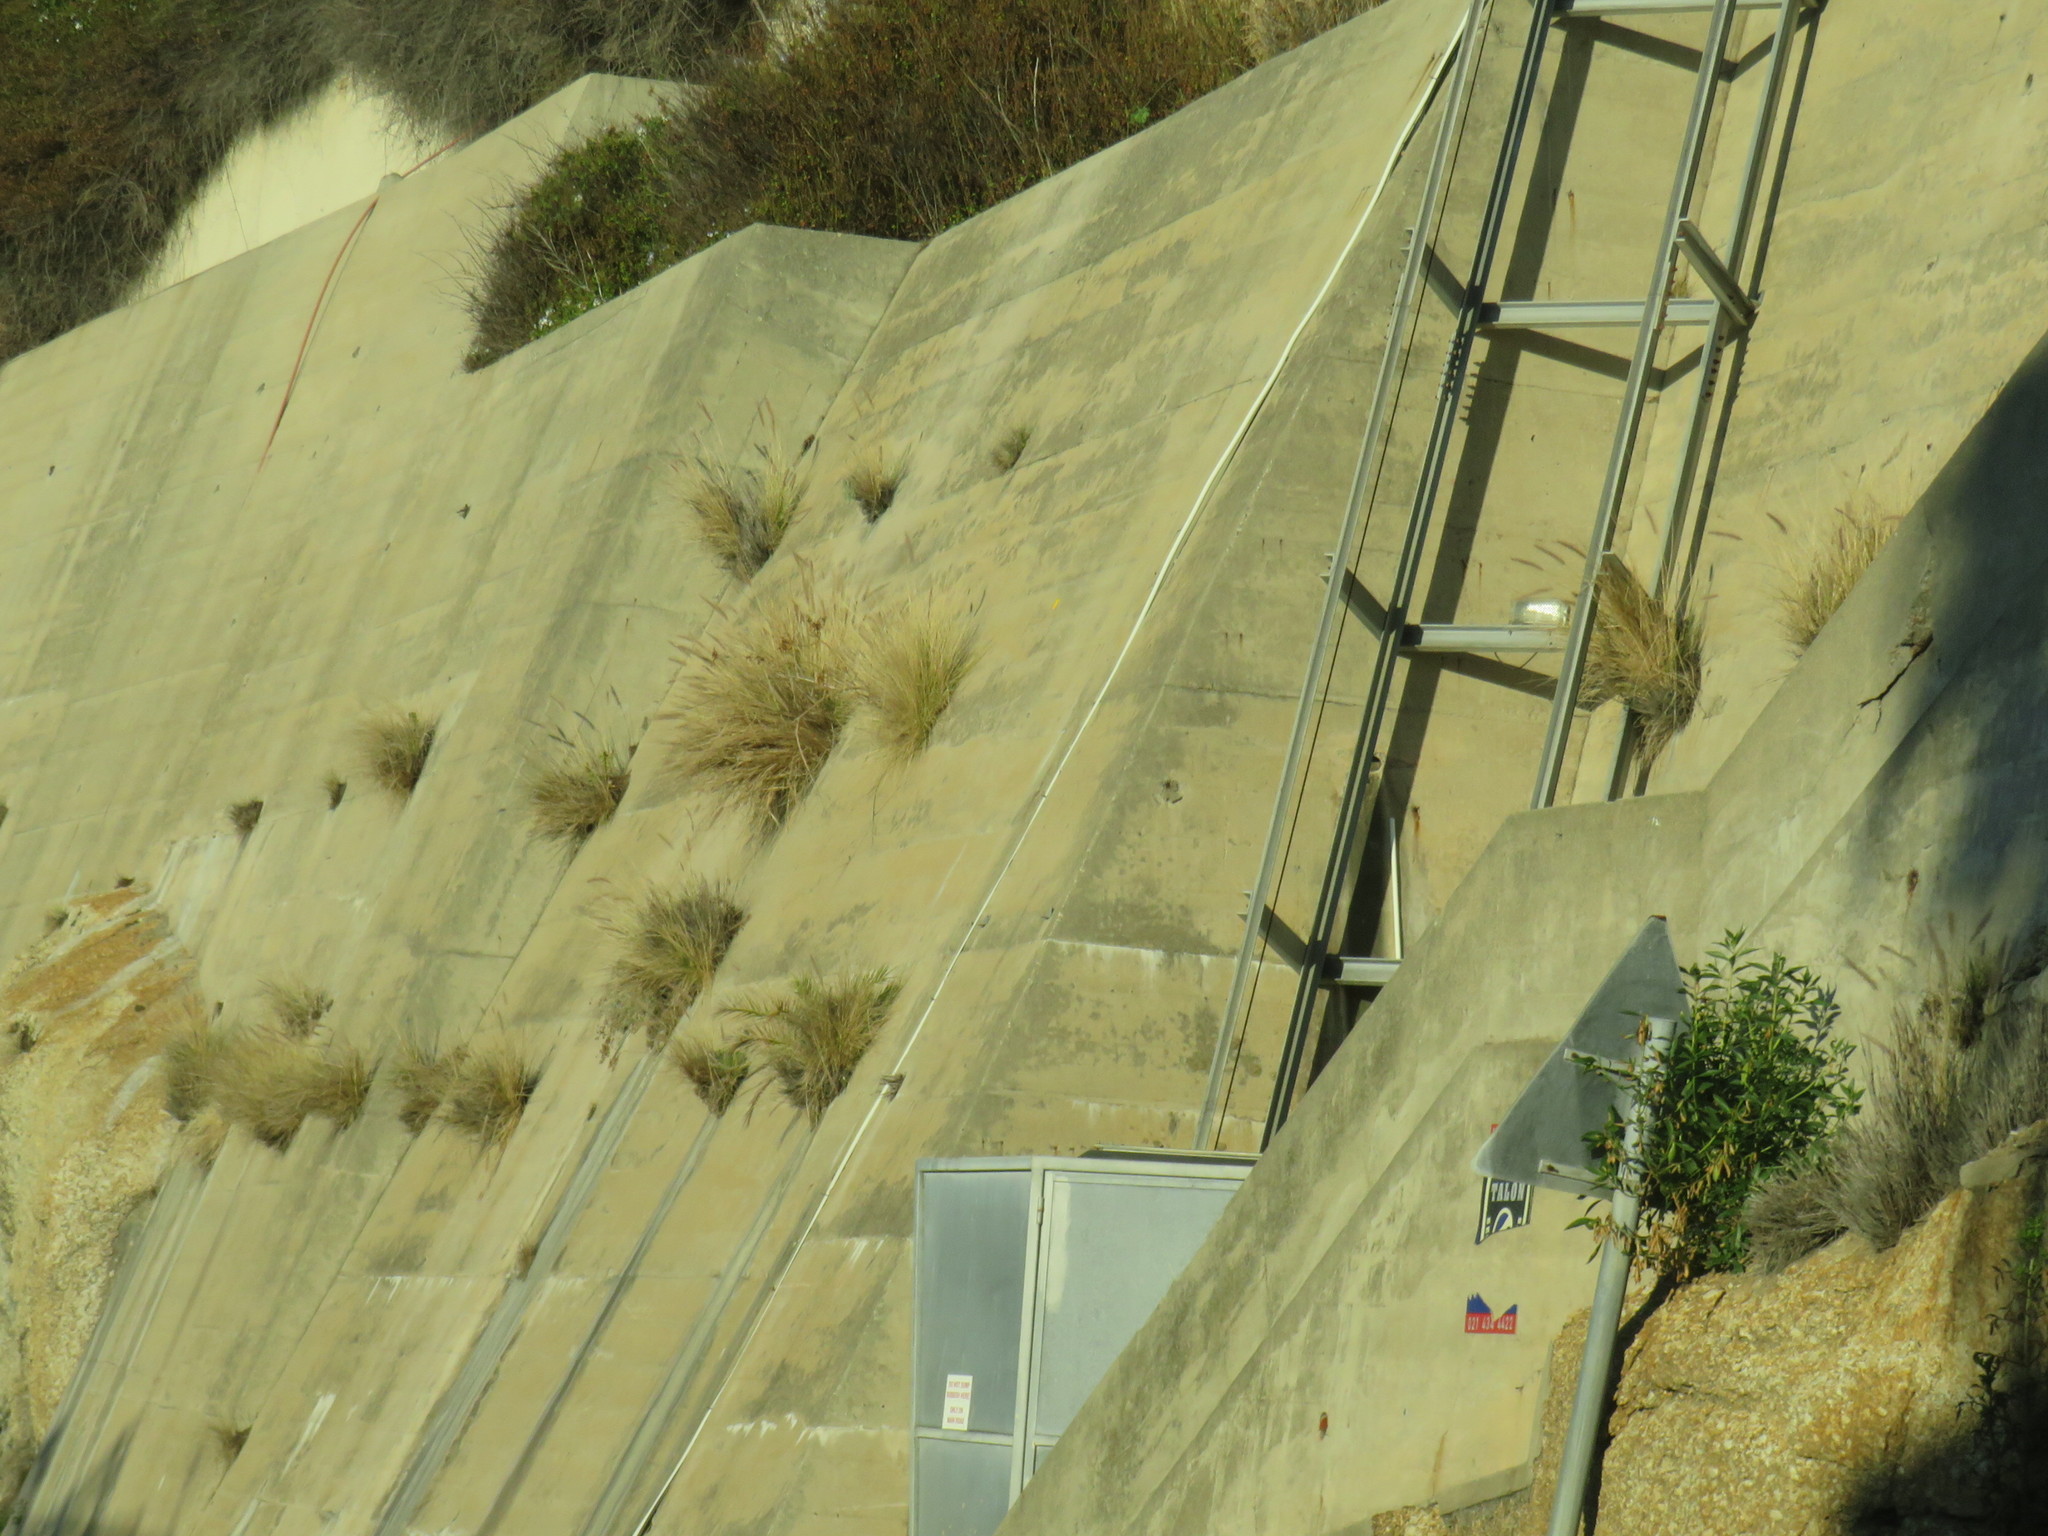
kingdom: Plantae
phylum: Tracheophyta
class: Liliopsida
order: Poales
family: Poaceae
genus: Cenchrus
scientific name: Cenchrus setaceus
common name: Crimson fountaingrass
